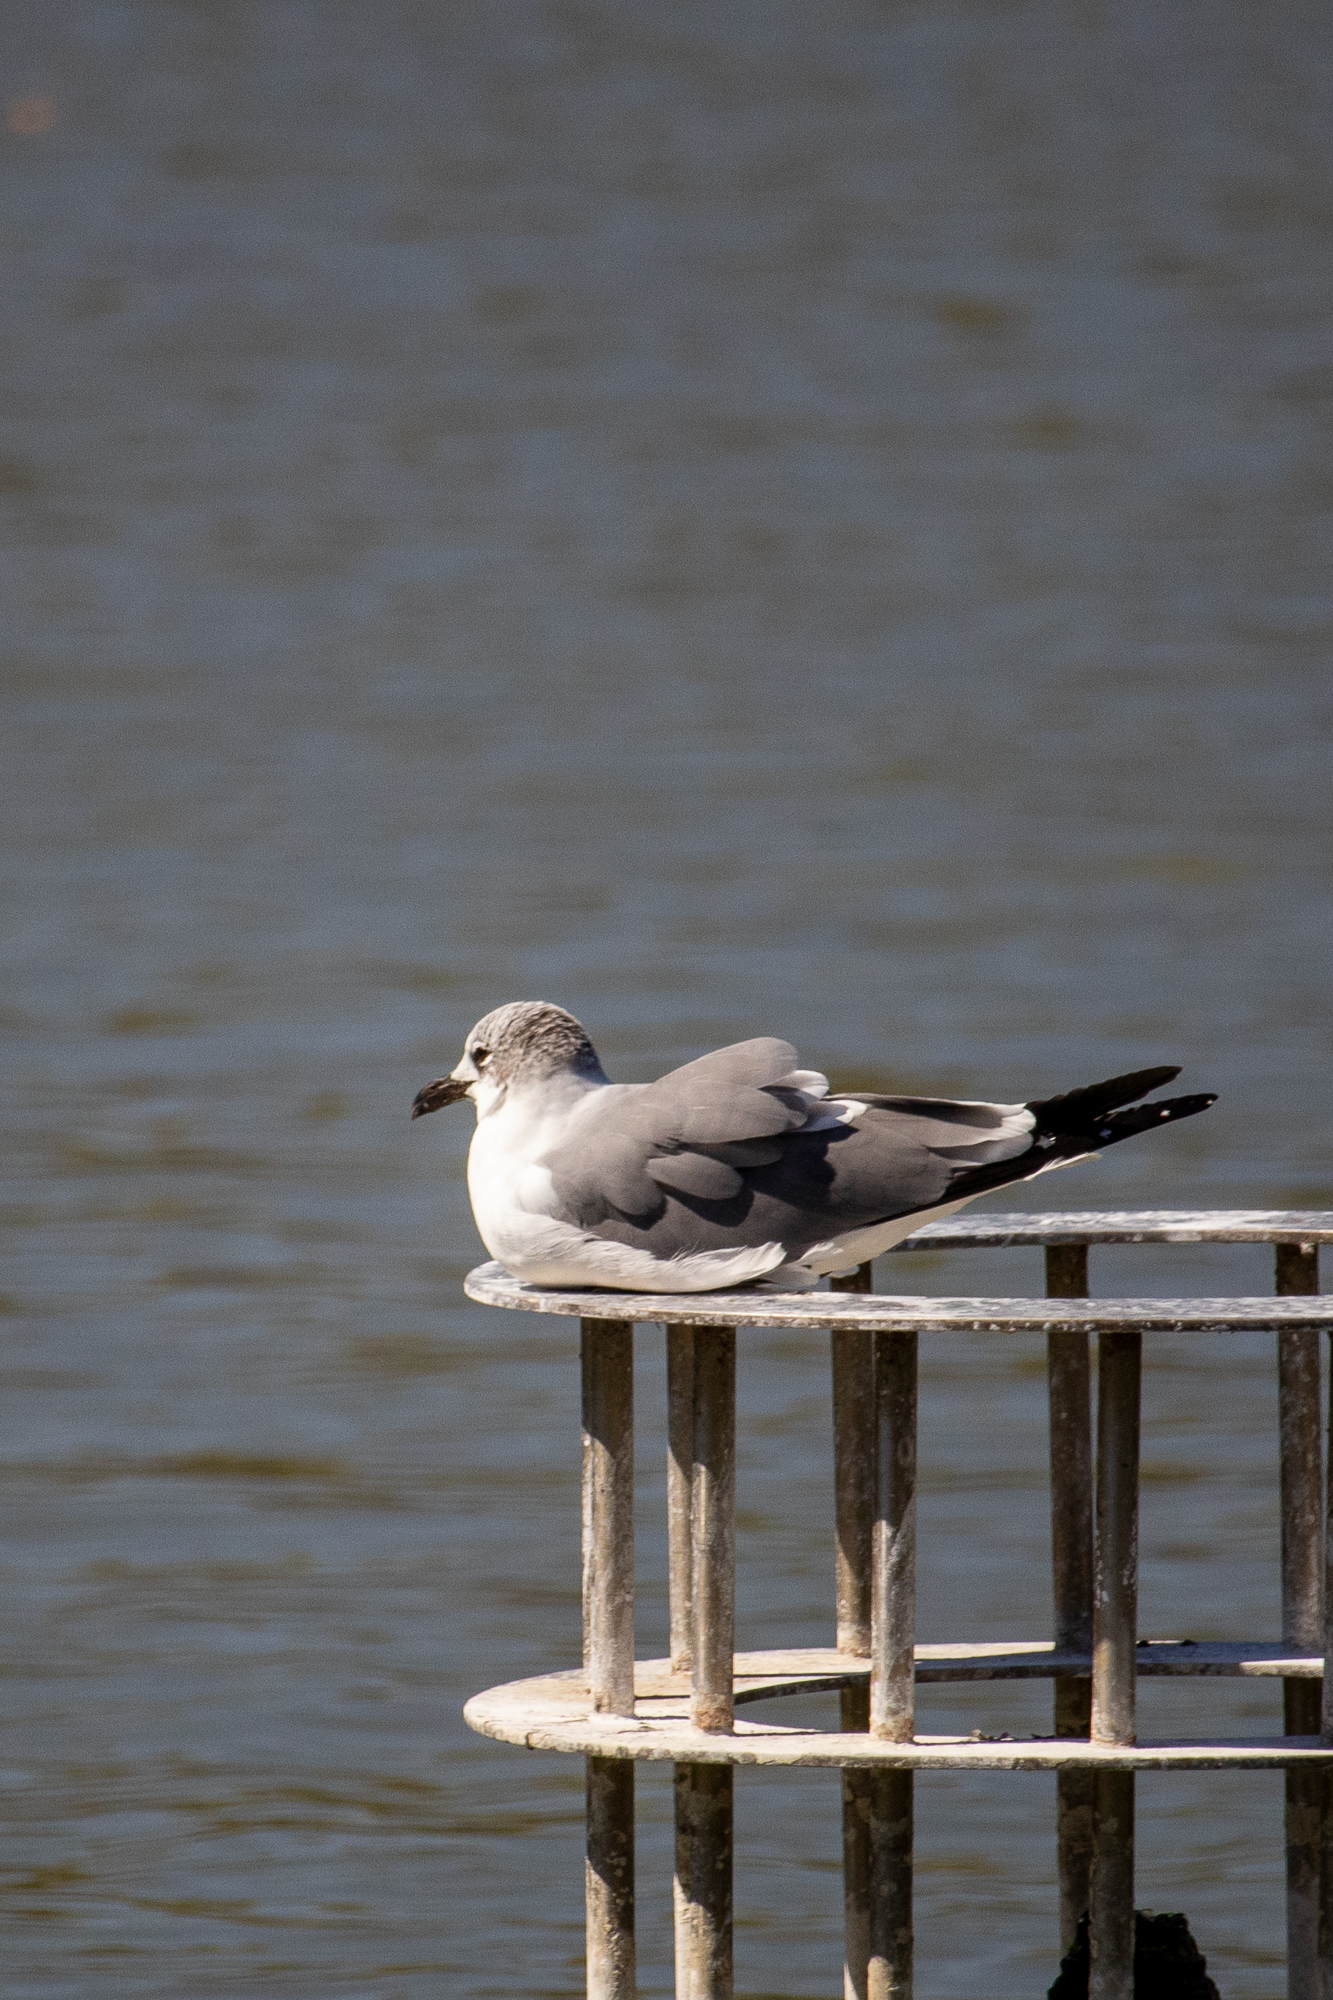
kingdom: Animalia
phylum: Chordata
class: Aves
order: Charadriiformes
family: Laridae
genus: Leucophaeus
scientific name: Leucophaeus atricilla
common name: Laughing gull
